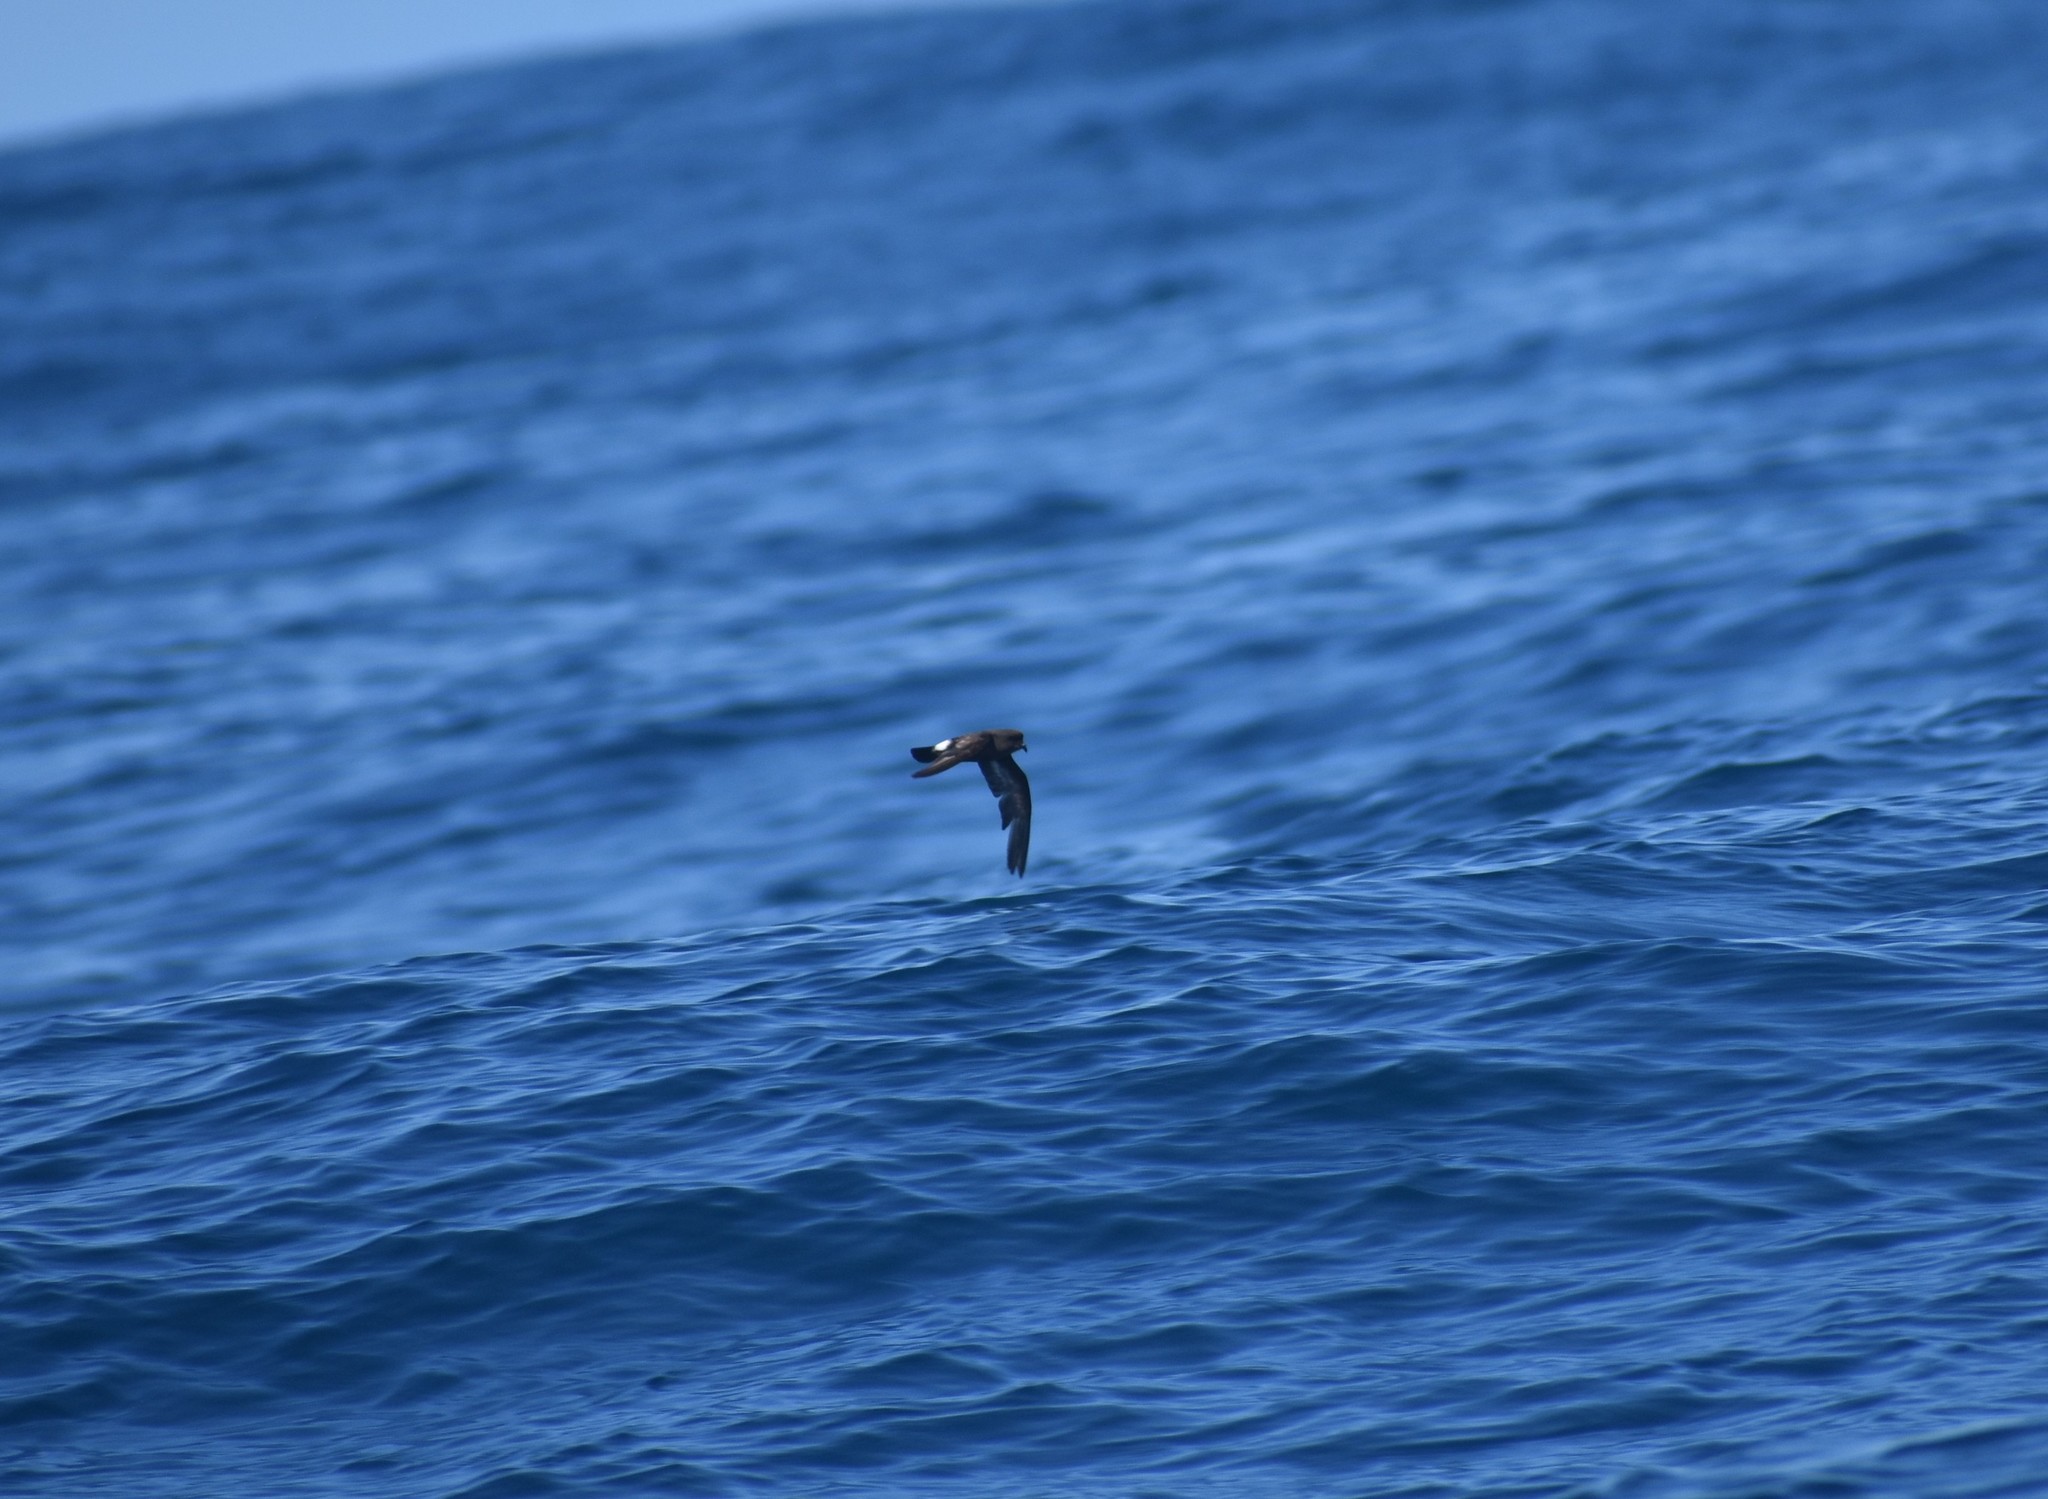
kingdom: Animalia
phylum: Chordata
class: Aves
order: Procellariiformes
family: Hydrobatidae
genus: Hydrobates
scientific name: Hydrobates pelagicus
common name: European storm-petrel
